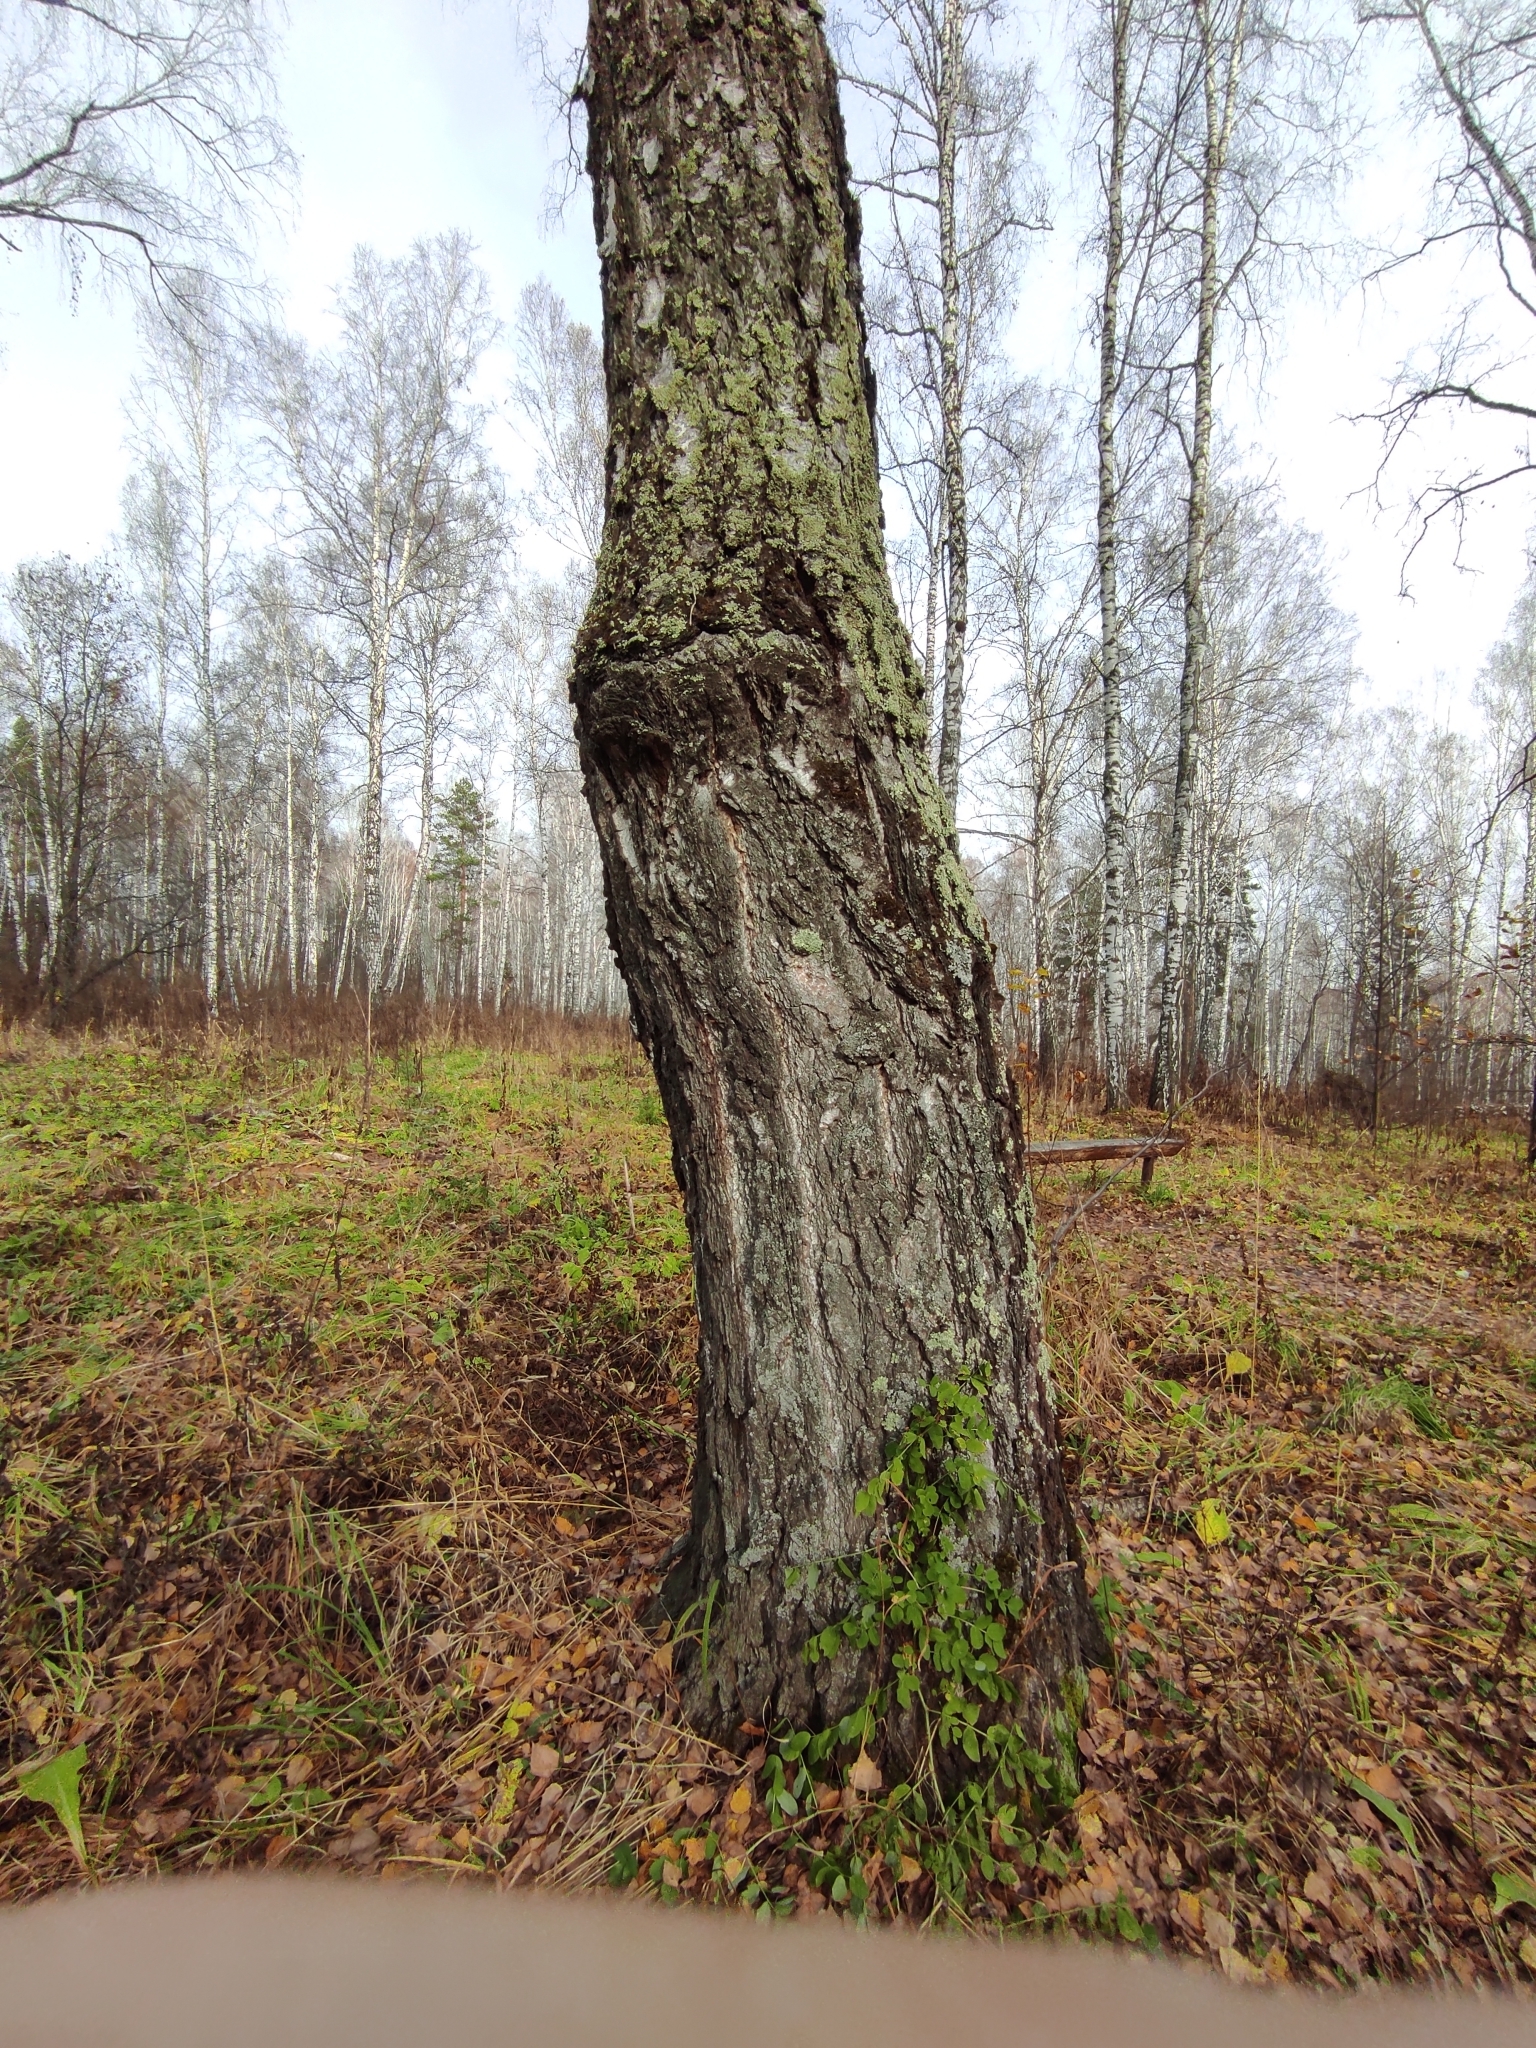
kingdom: Plantae
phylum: Tracheophyta
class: Magnoliopsida
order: Fagales
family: Betulaceae
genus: Betula
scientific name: Betula pendula
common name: Silver birch
